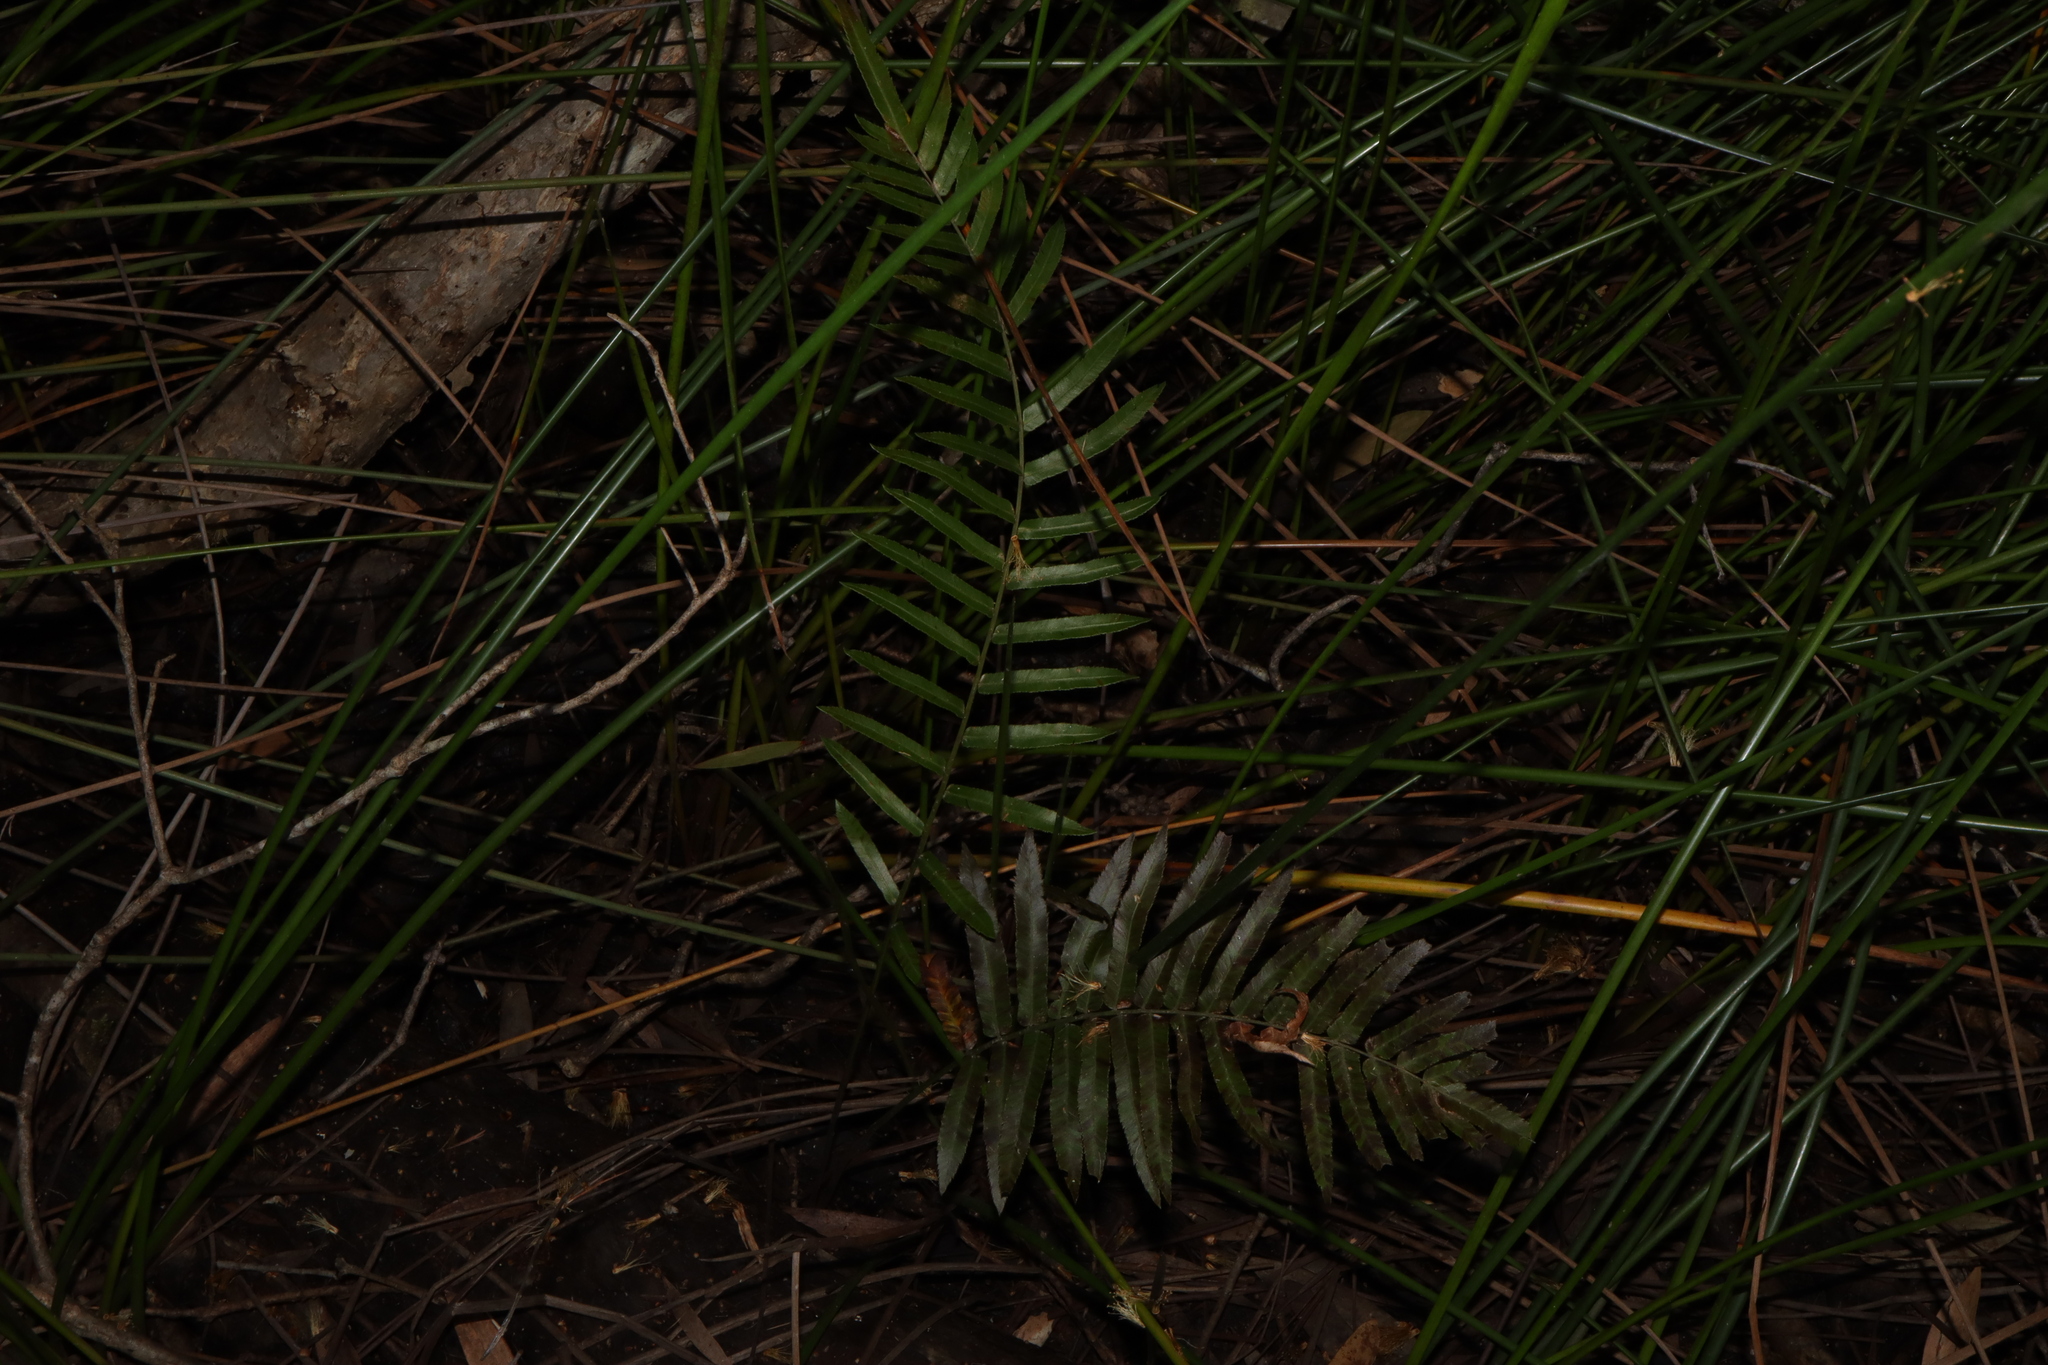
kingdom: Plantae
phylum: Tracheophyta
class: Polypodiopsida
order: Polypodiales
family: Blechnaceae
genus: Telmatoblechnum
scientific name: Telmatoblechnum indicum
